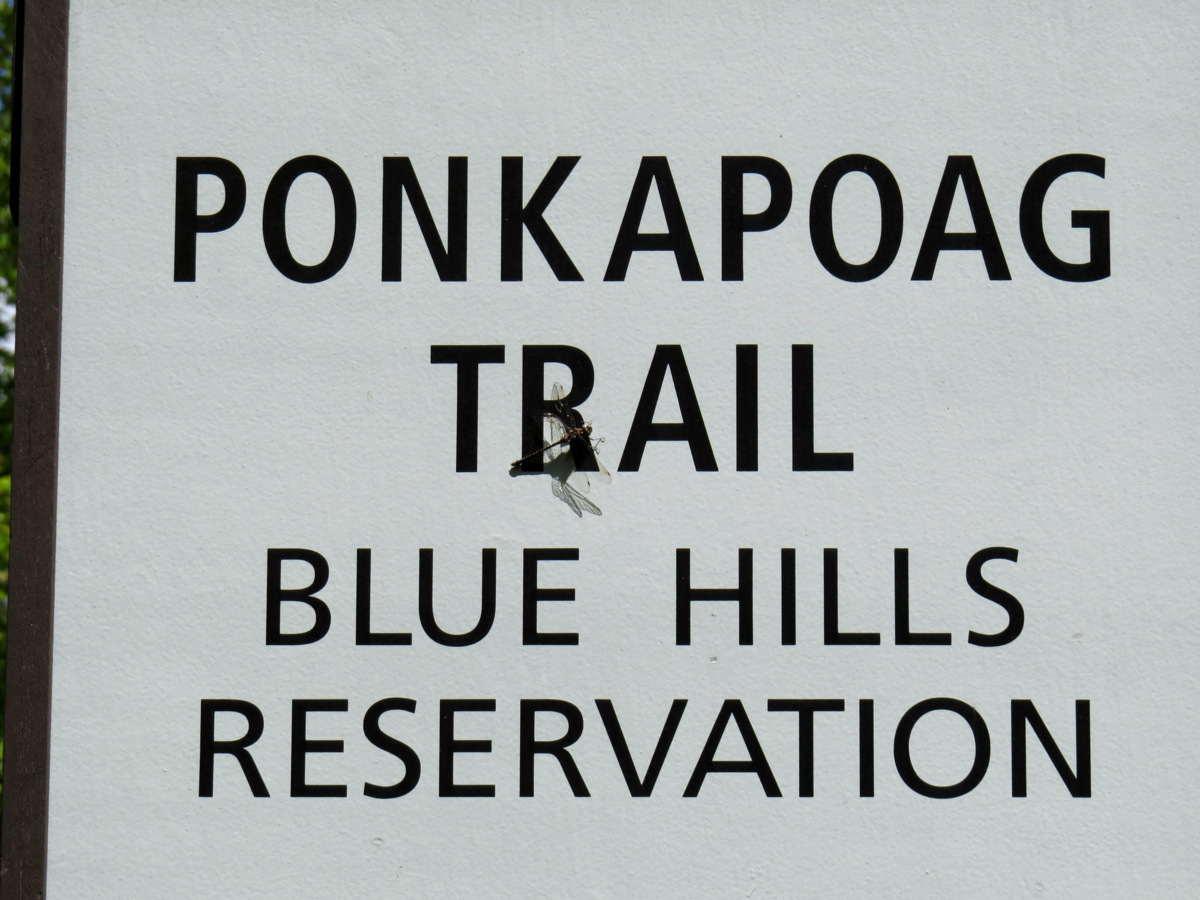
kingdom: Animalia
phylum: Arthropoda
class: Insecta
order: Odonata
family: Aeshnidae
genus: Gomphaeschna
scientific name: Gomphaeschna furcillata
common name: Harlequin darner
